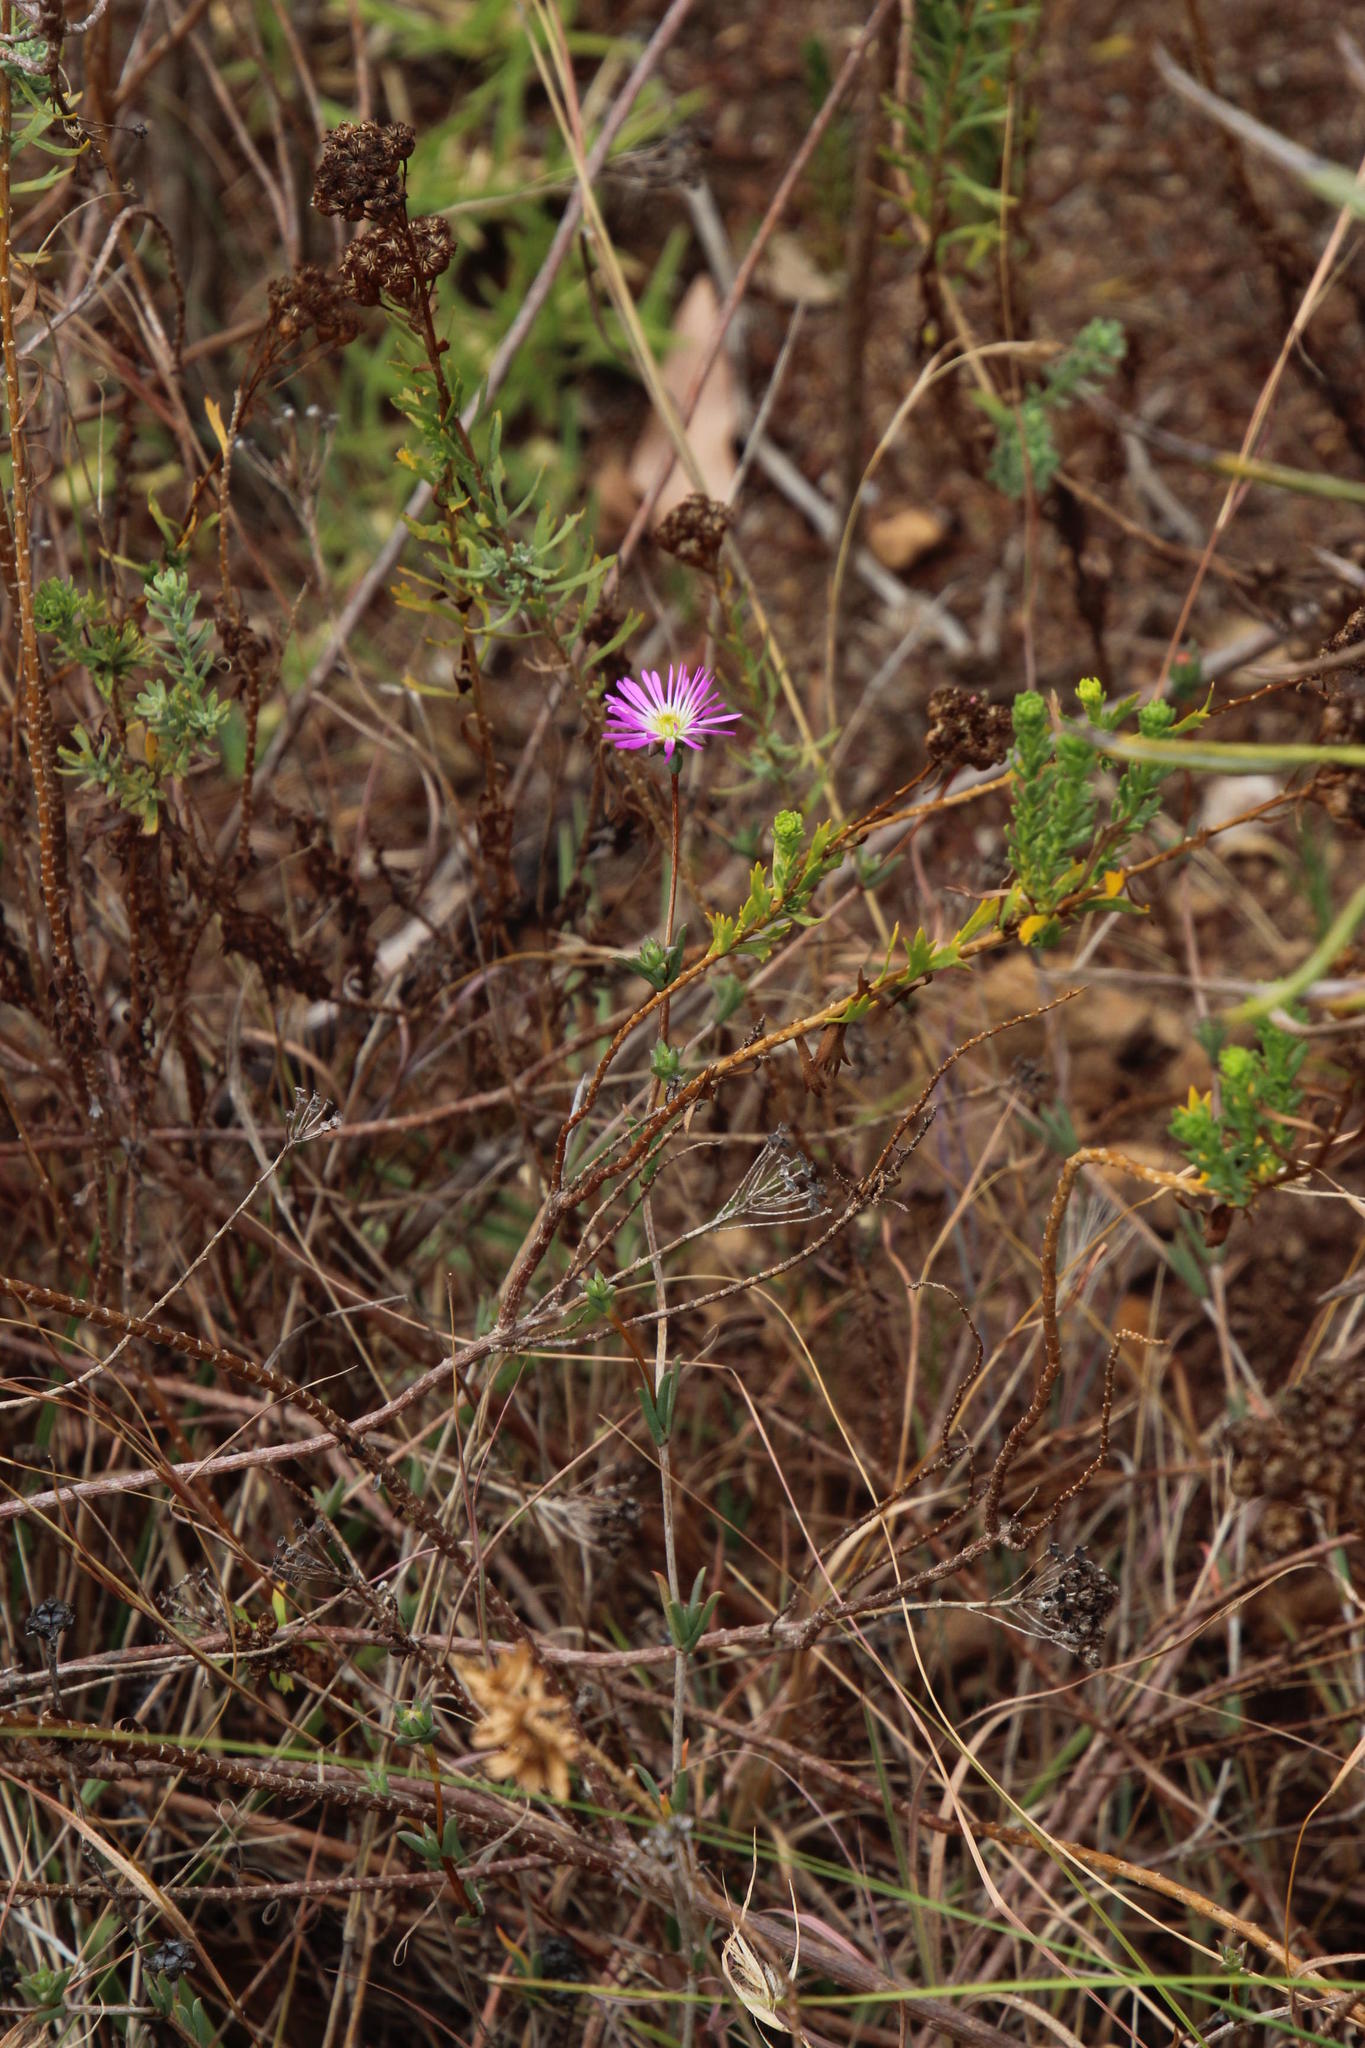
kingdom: Plantae
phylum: Tracheophyta
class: Magnoliopsida
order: Caryophyllales
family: Aizoaceae
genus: Erepsia
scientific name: Erepsia anceps
